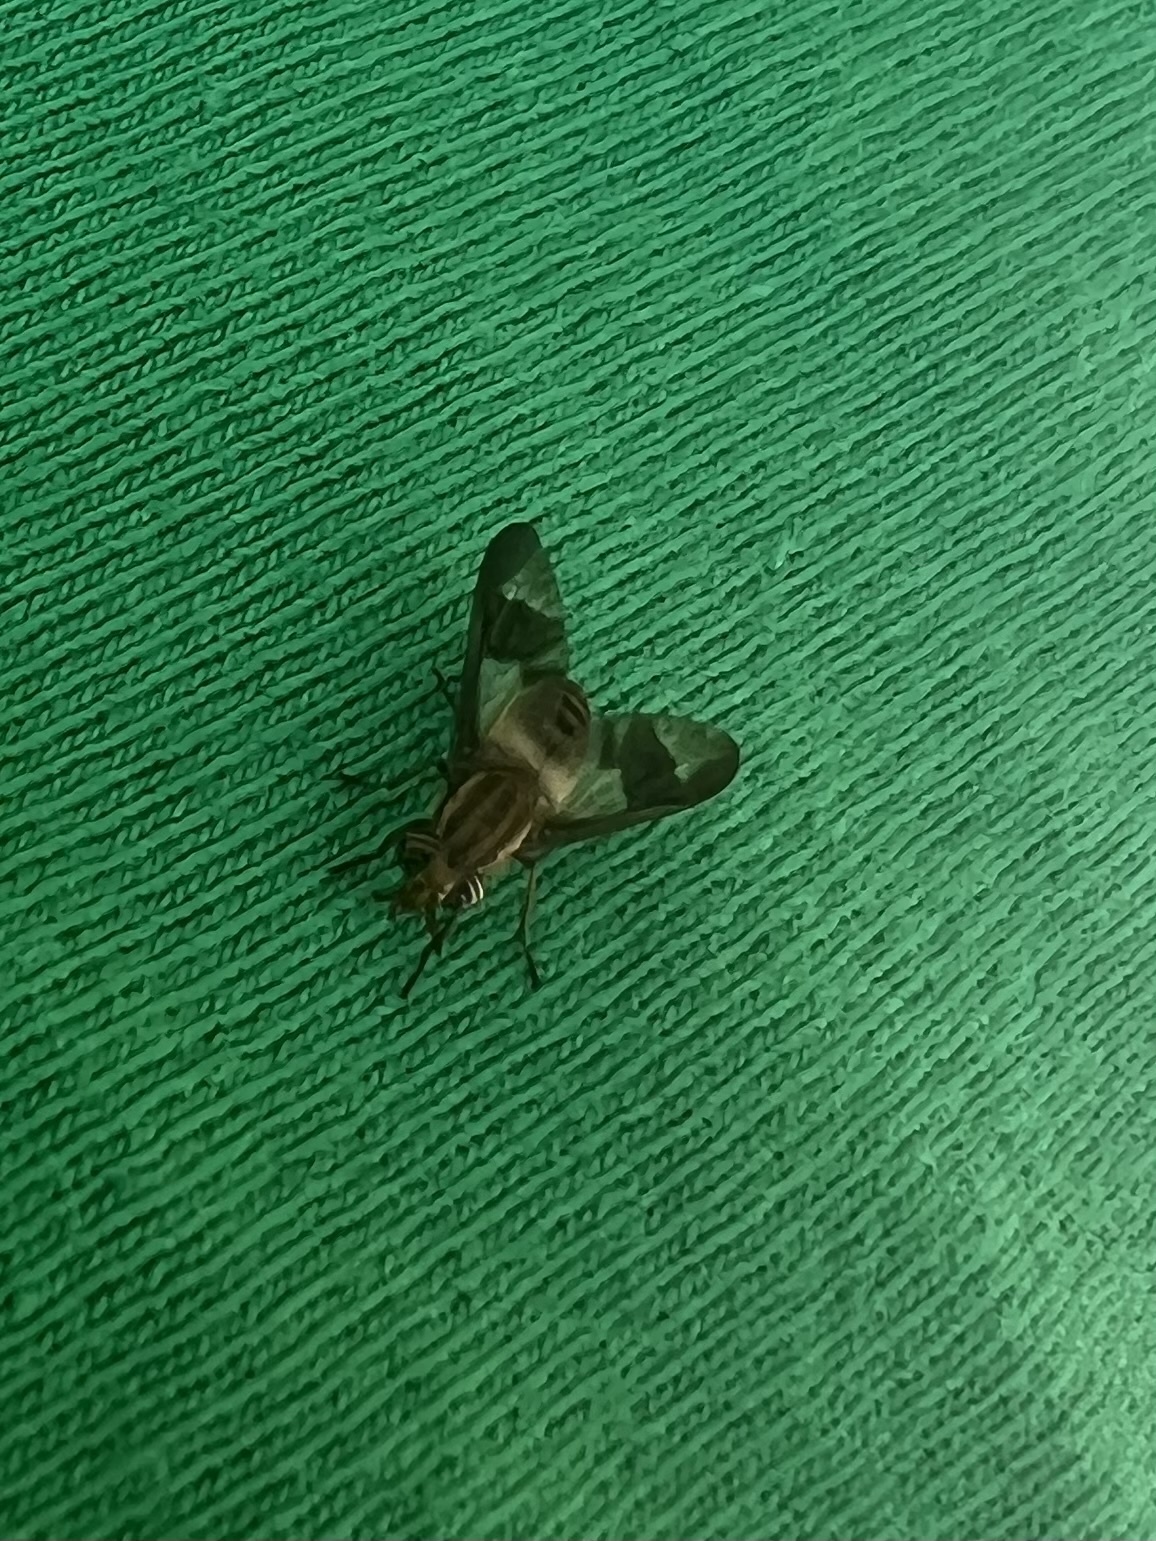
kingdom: Animalia
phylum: Arthropoda
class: Insecta
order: Diptera
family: Tabanidae
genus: Chrysops
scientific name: Chrysops reicherti
